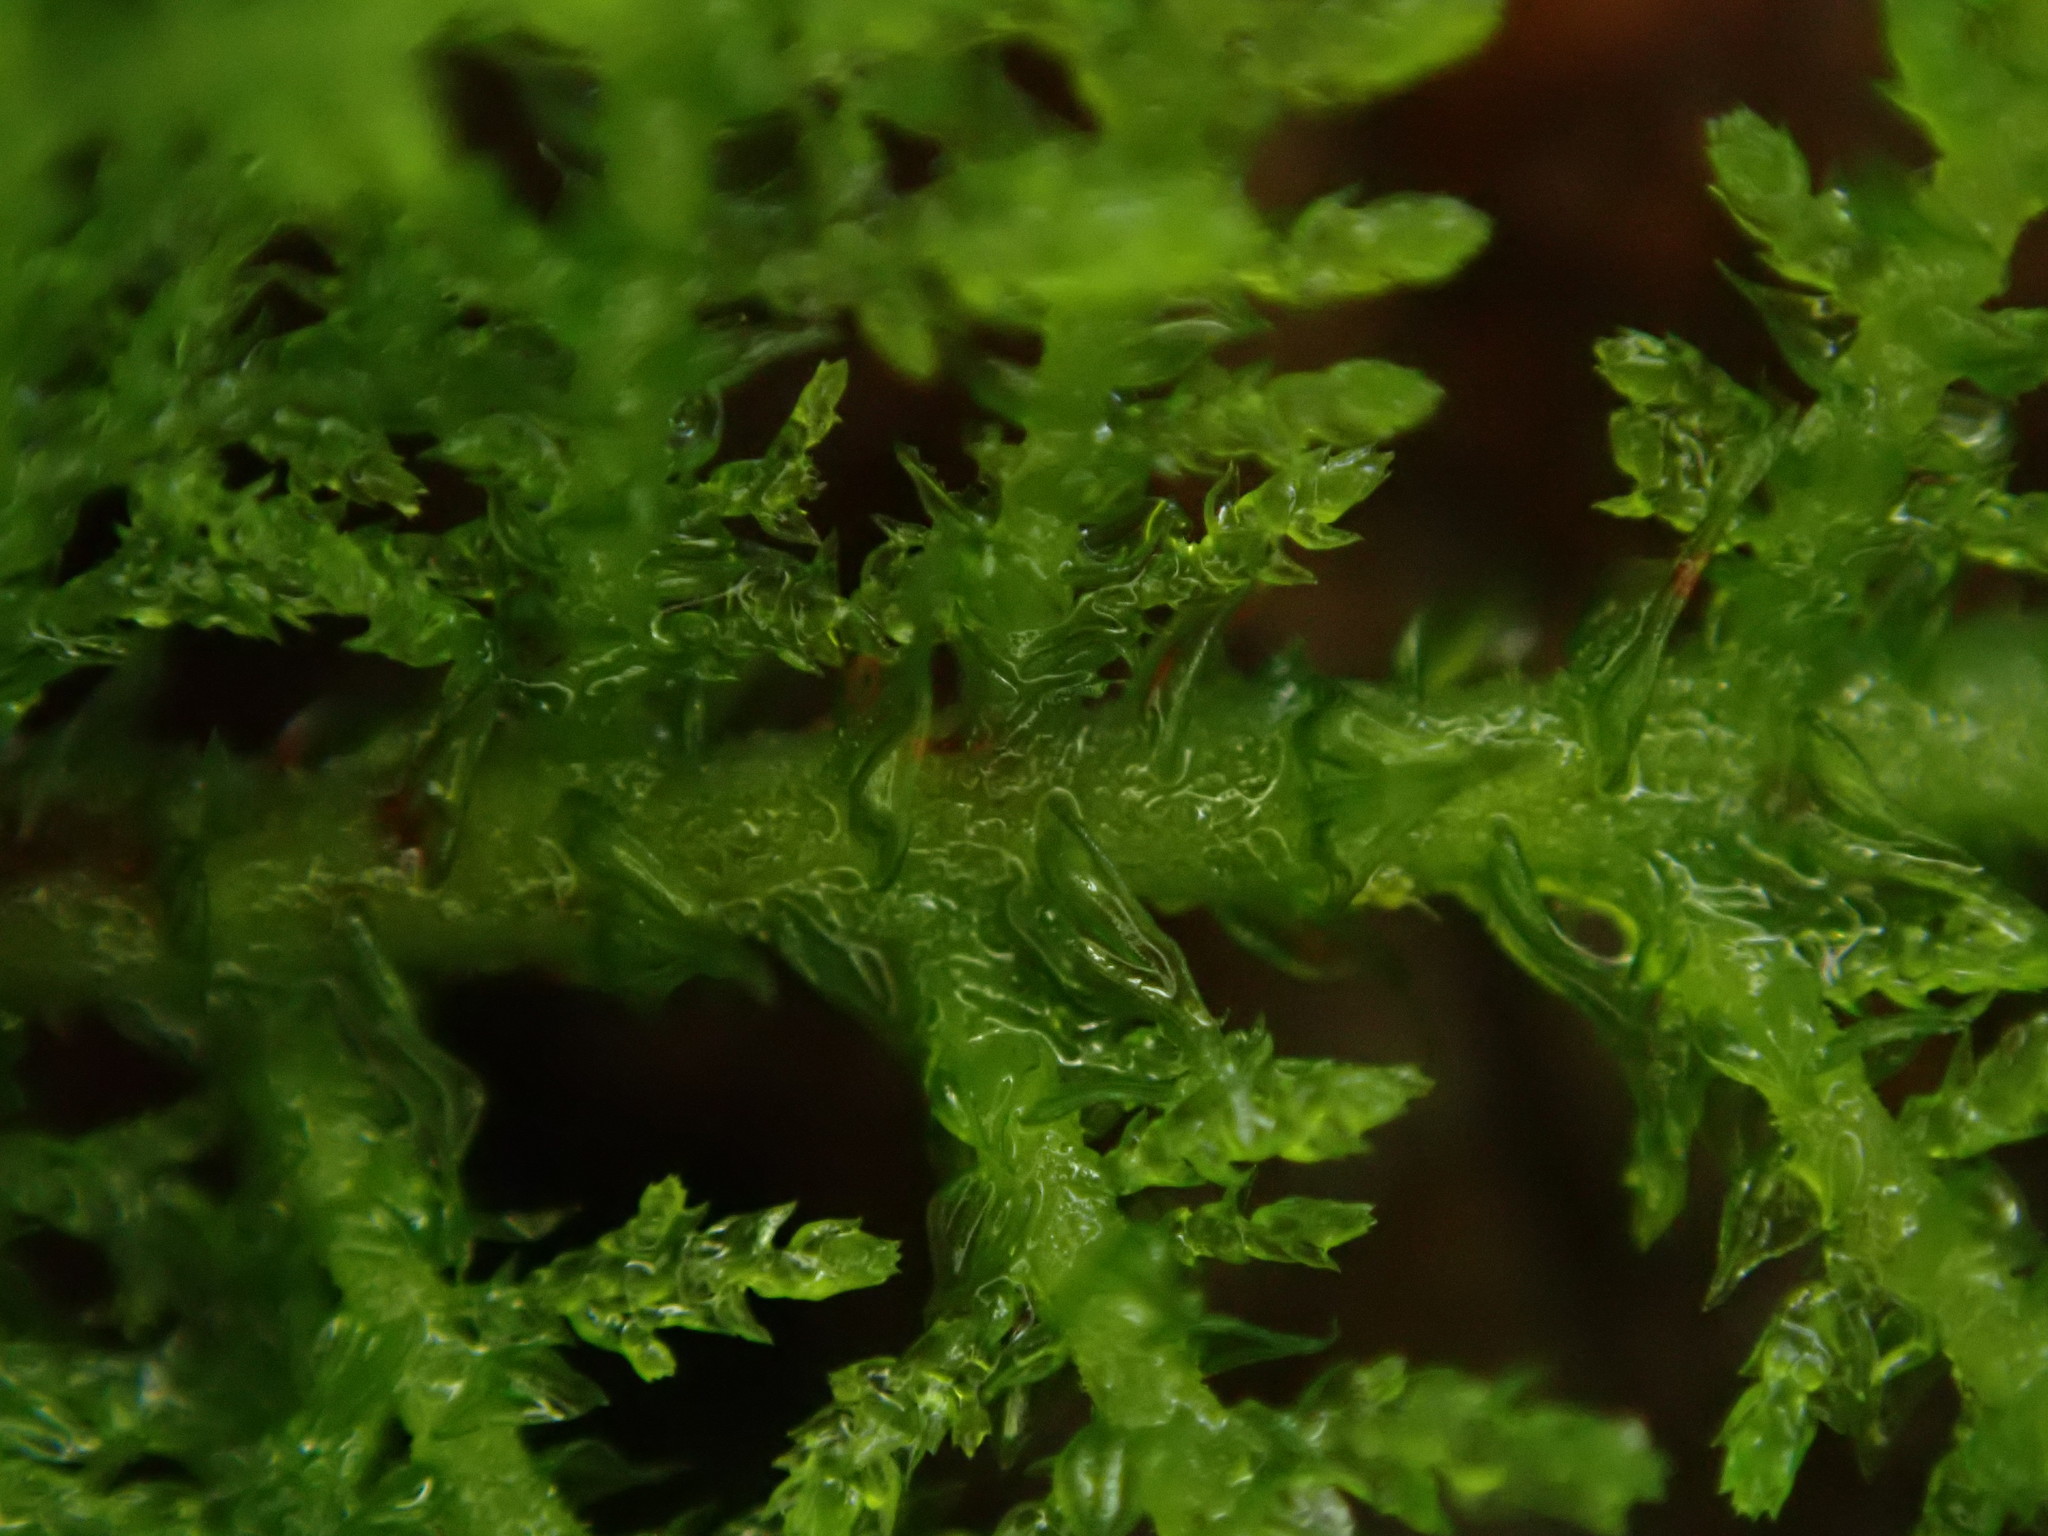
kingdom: Plantae
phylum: Bryophyta
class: Bryopsida
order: Hypnales
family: Thuidiaceae
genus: Thuidium
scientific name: Thuidium tamariscinum
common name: Common tamarisk-moss
